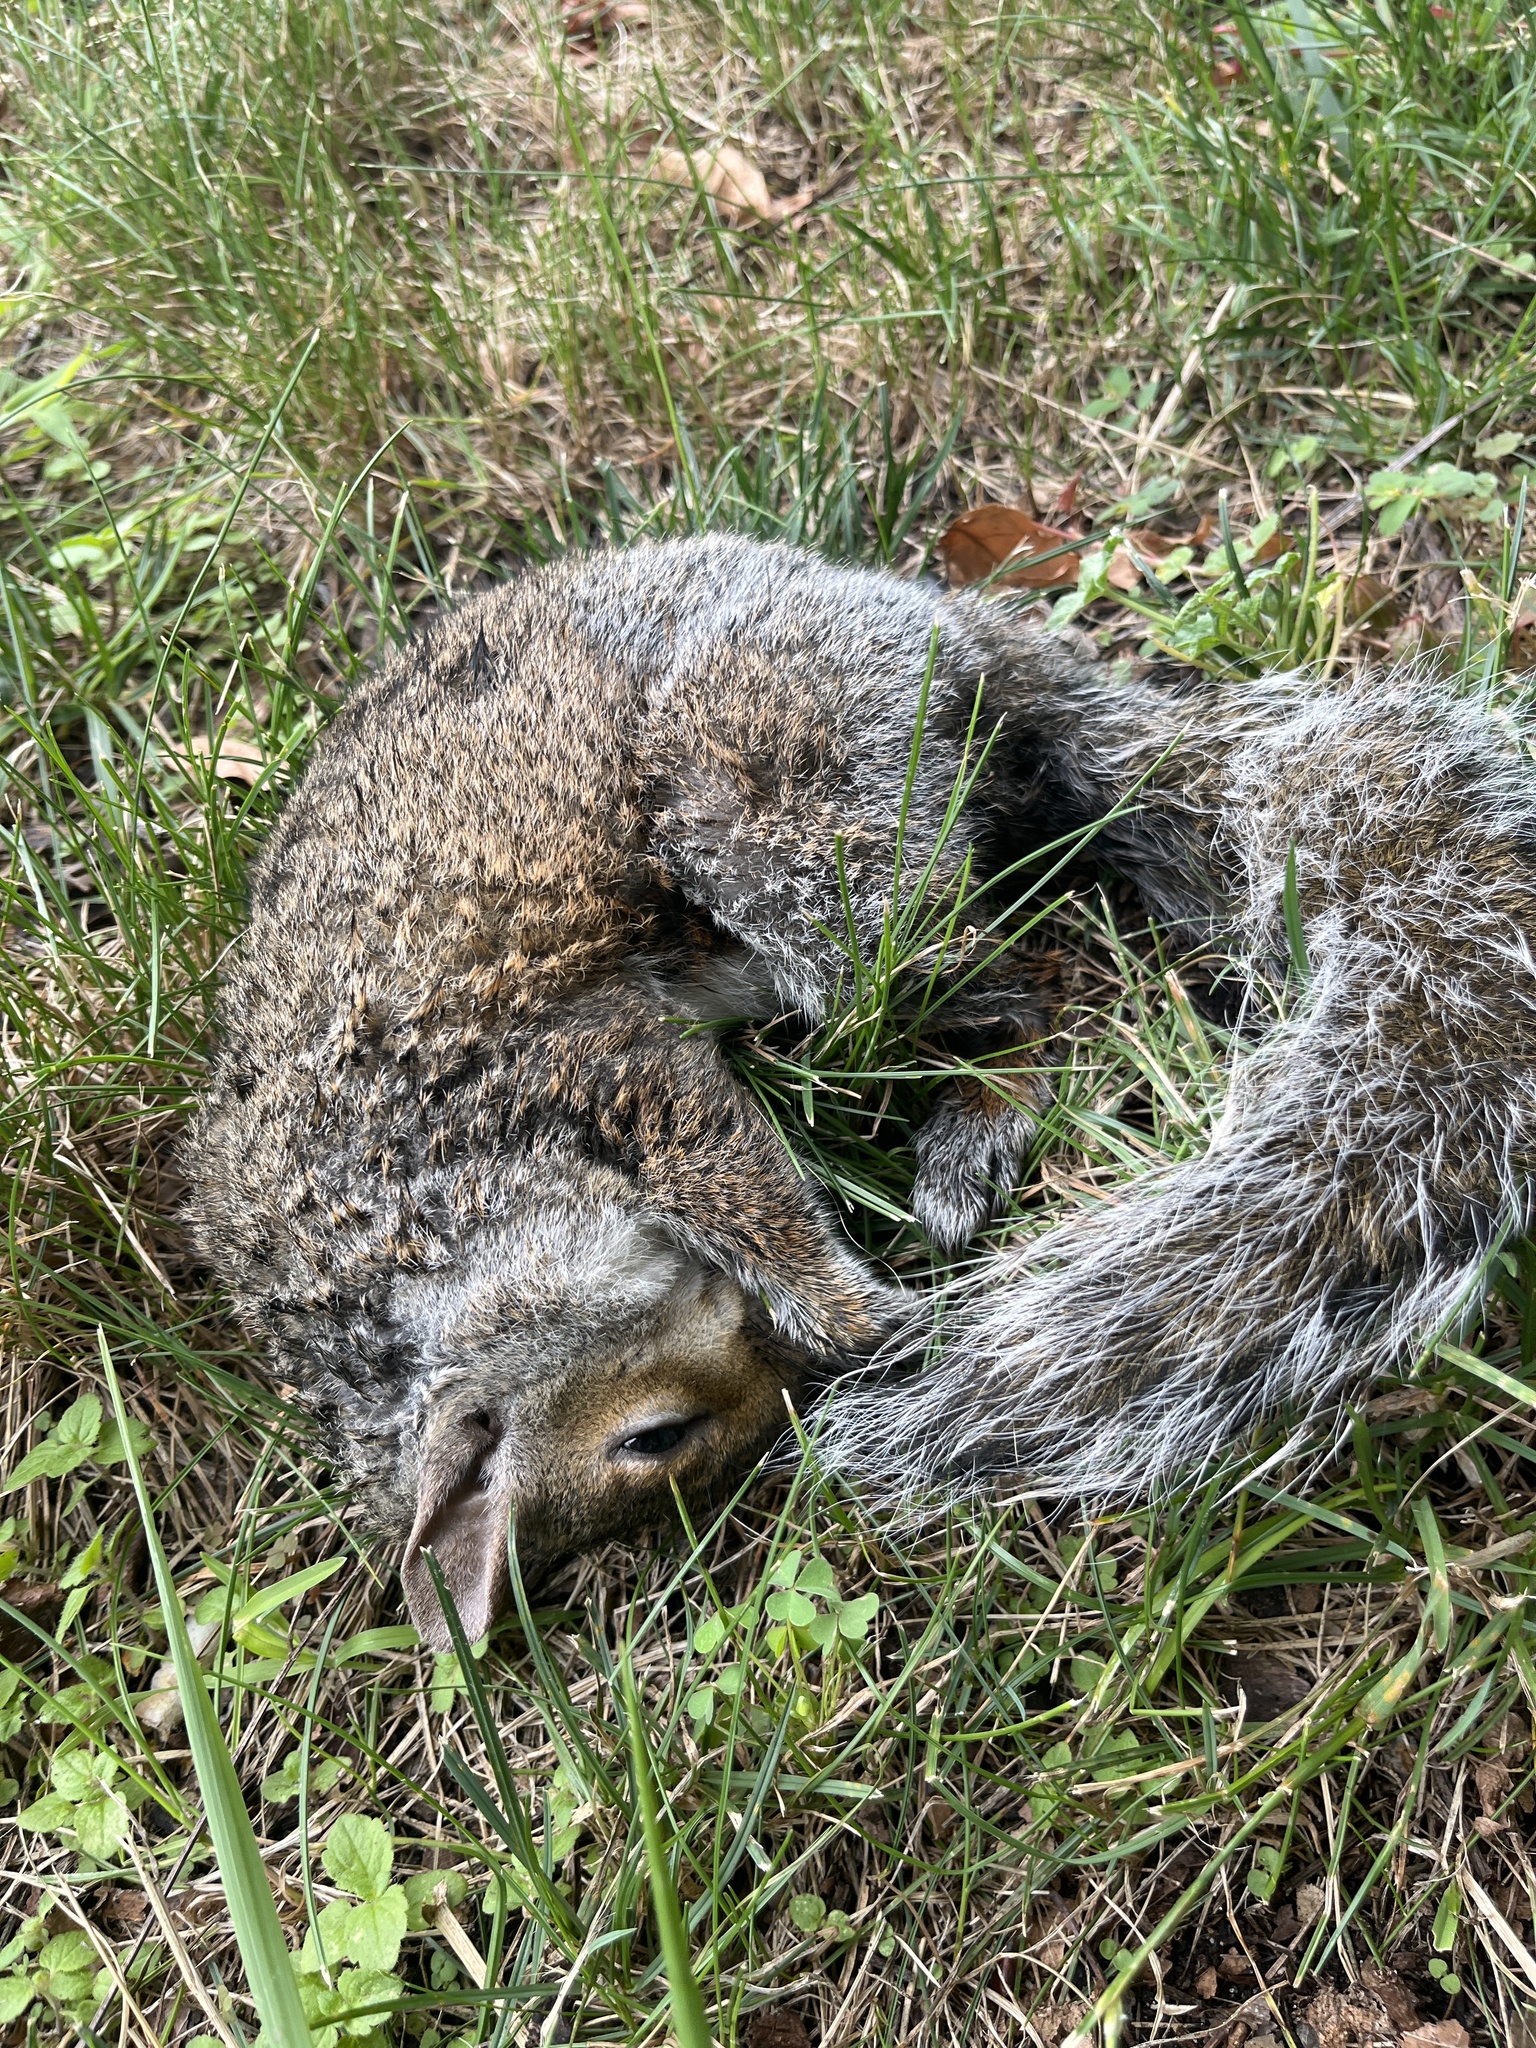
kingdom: Animalia
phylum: Chordata
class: Mammalia
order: Rodentia
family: Sciuridae
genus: Sciurus
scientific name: Sciurus carolinensis
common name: Eastern gray squirrel
